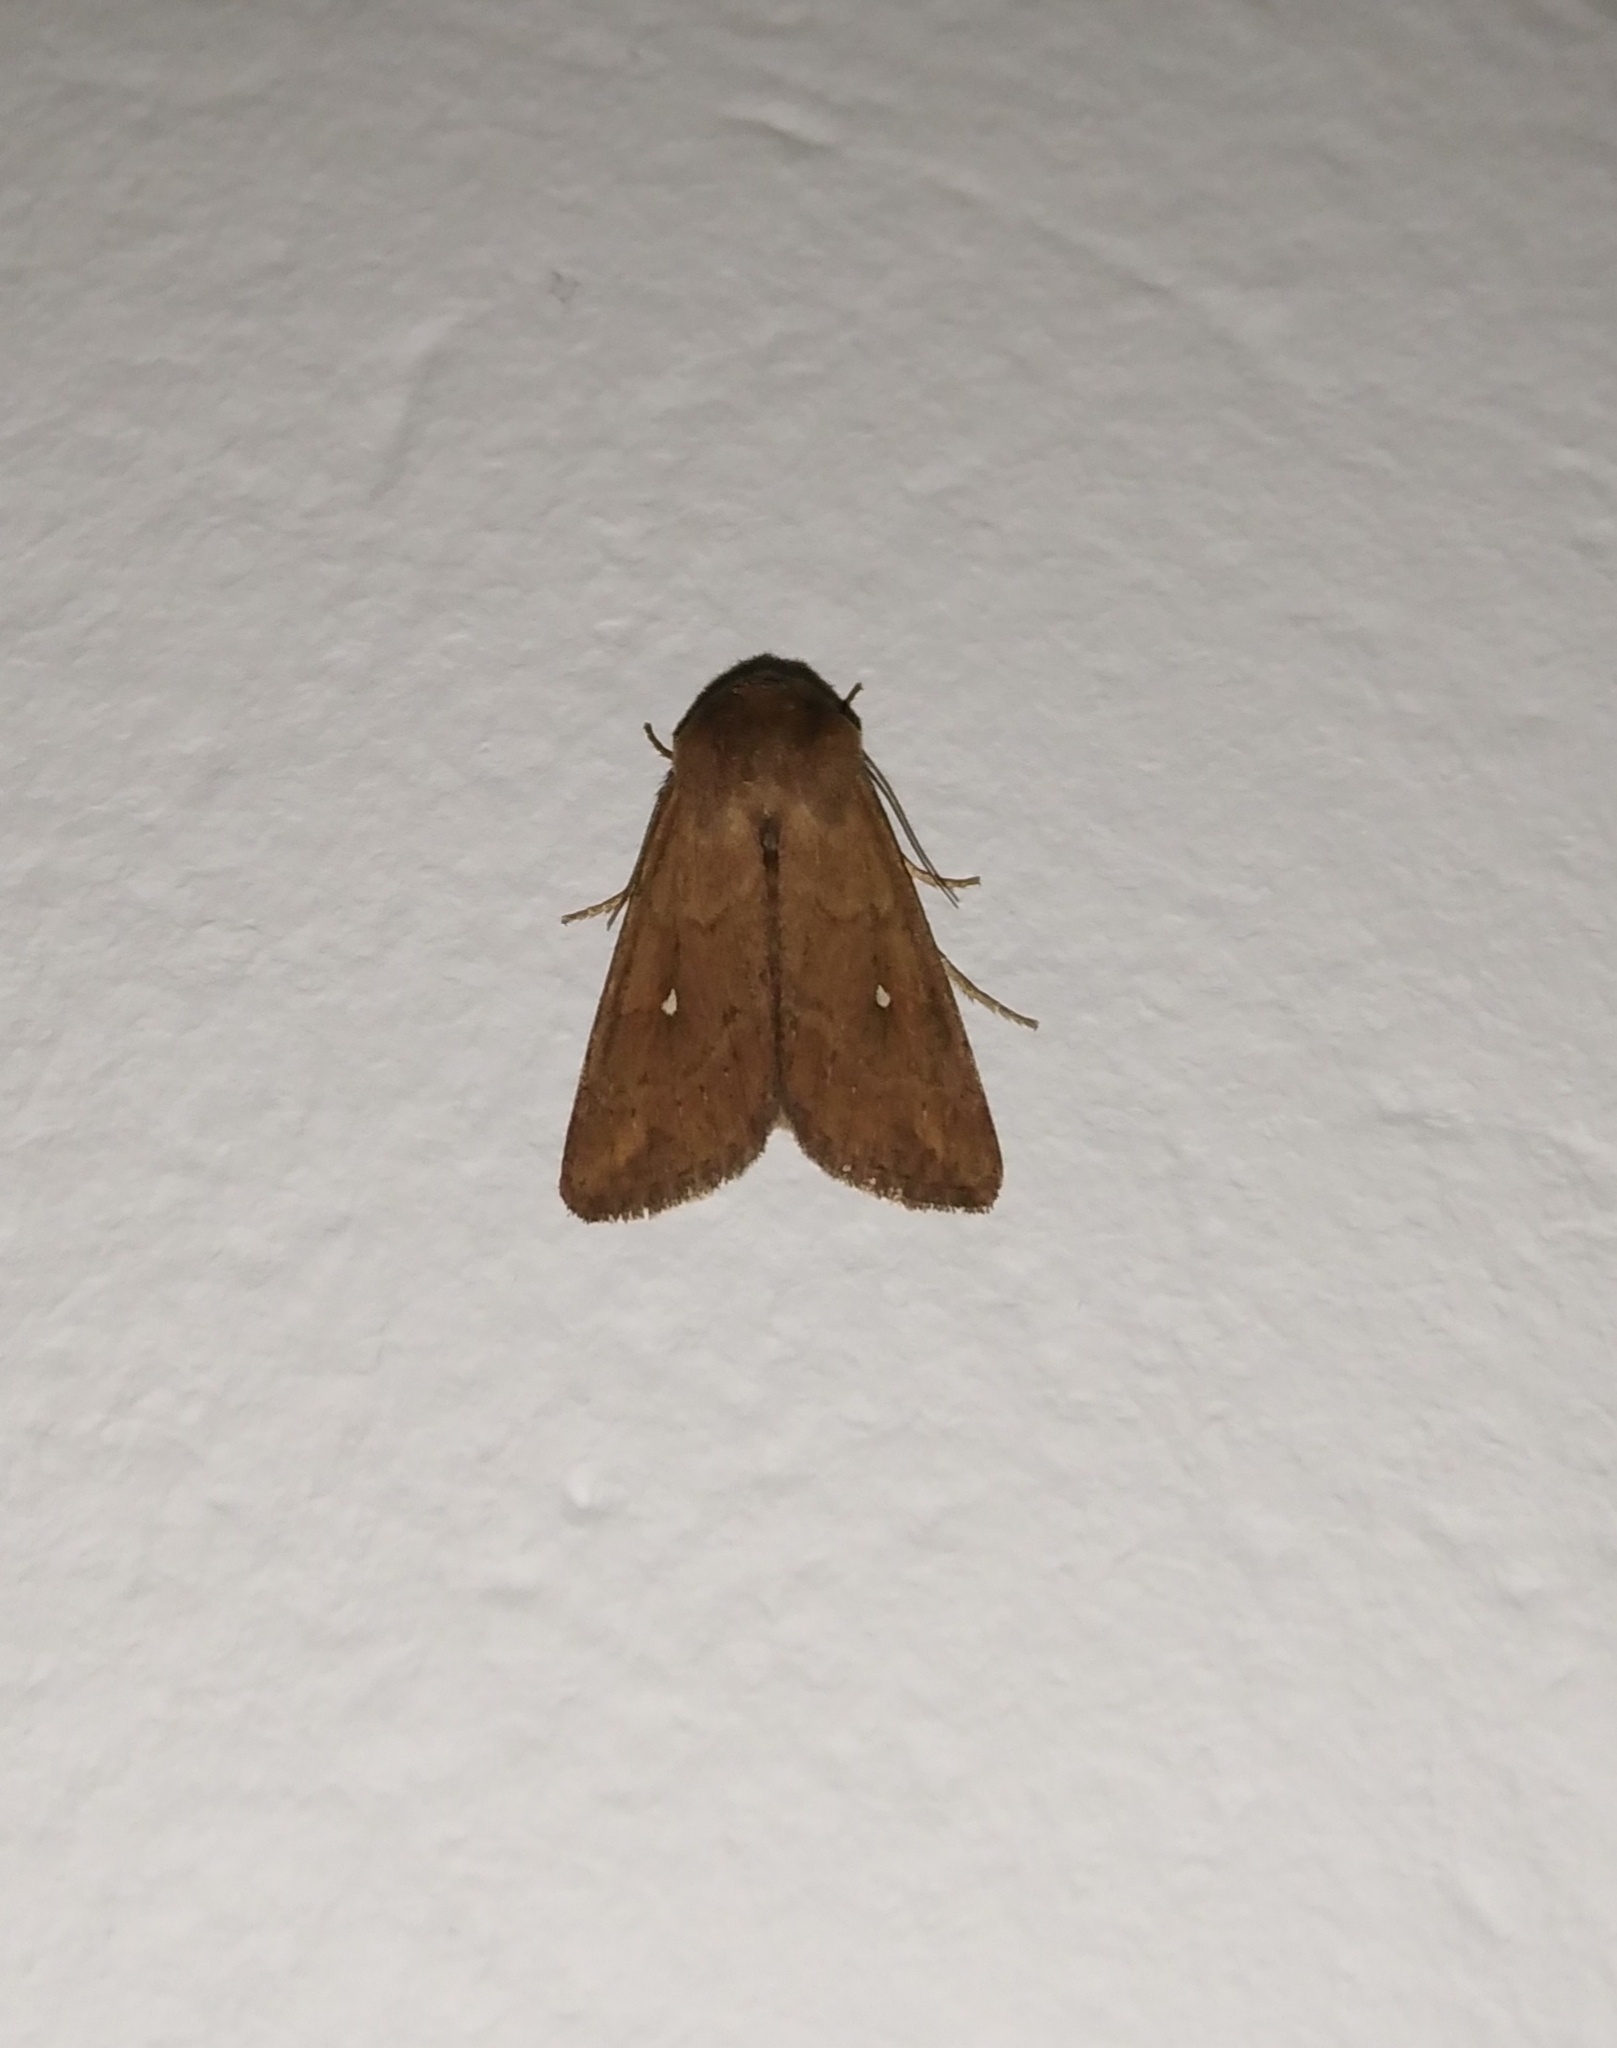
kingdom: Animalia
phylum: Arthropoda
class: Insecta
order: Lepidoptera
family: Noctuidae
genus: Mythimna
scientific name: Mythimna albipuncta
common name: White-point
